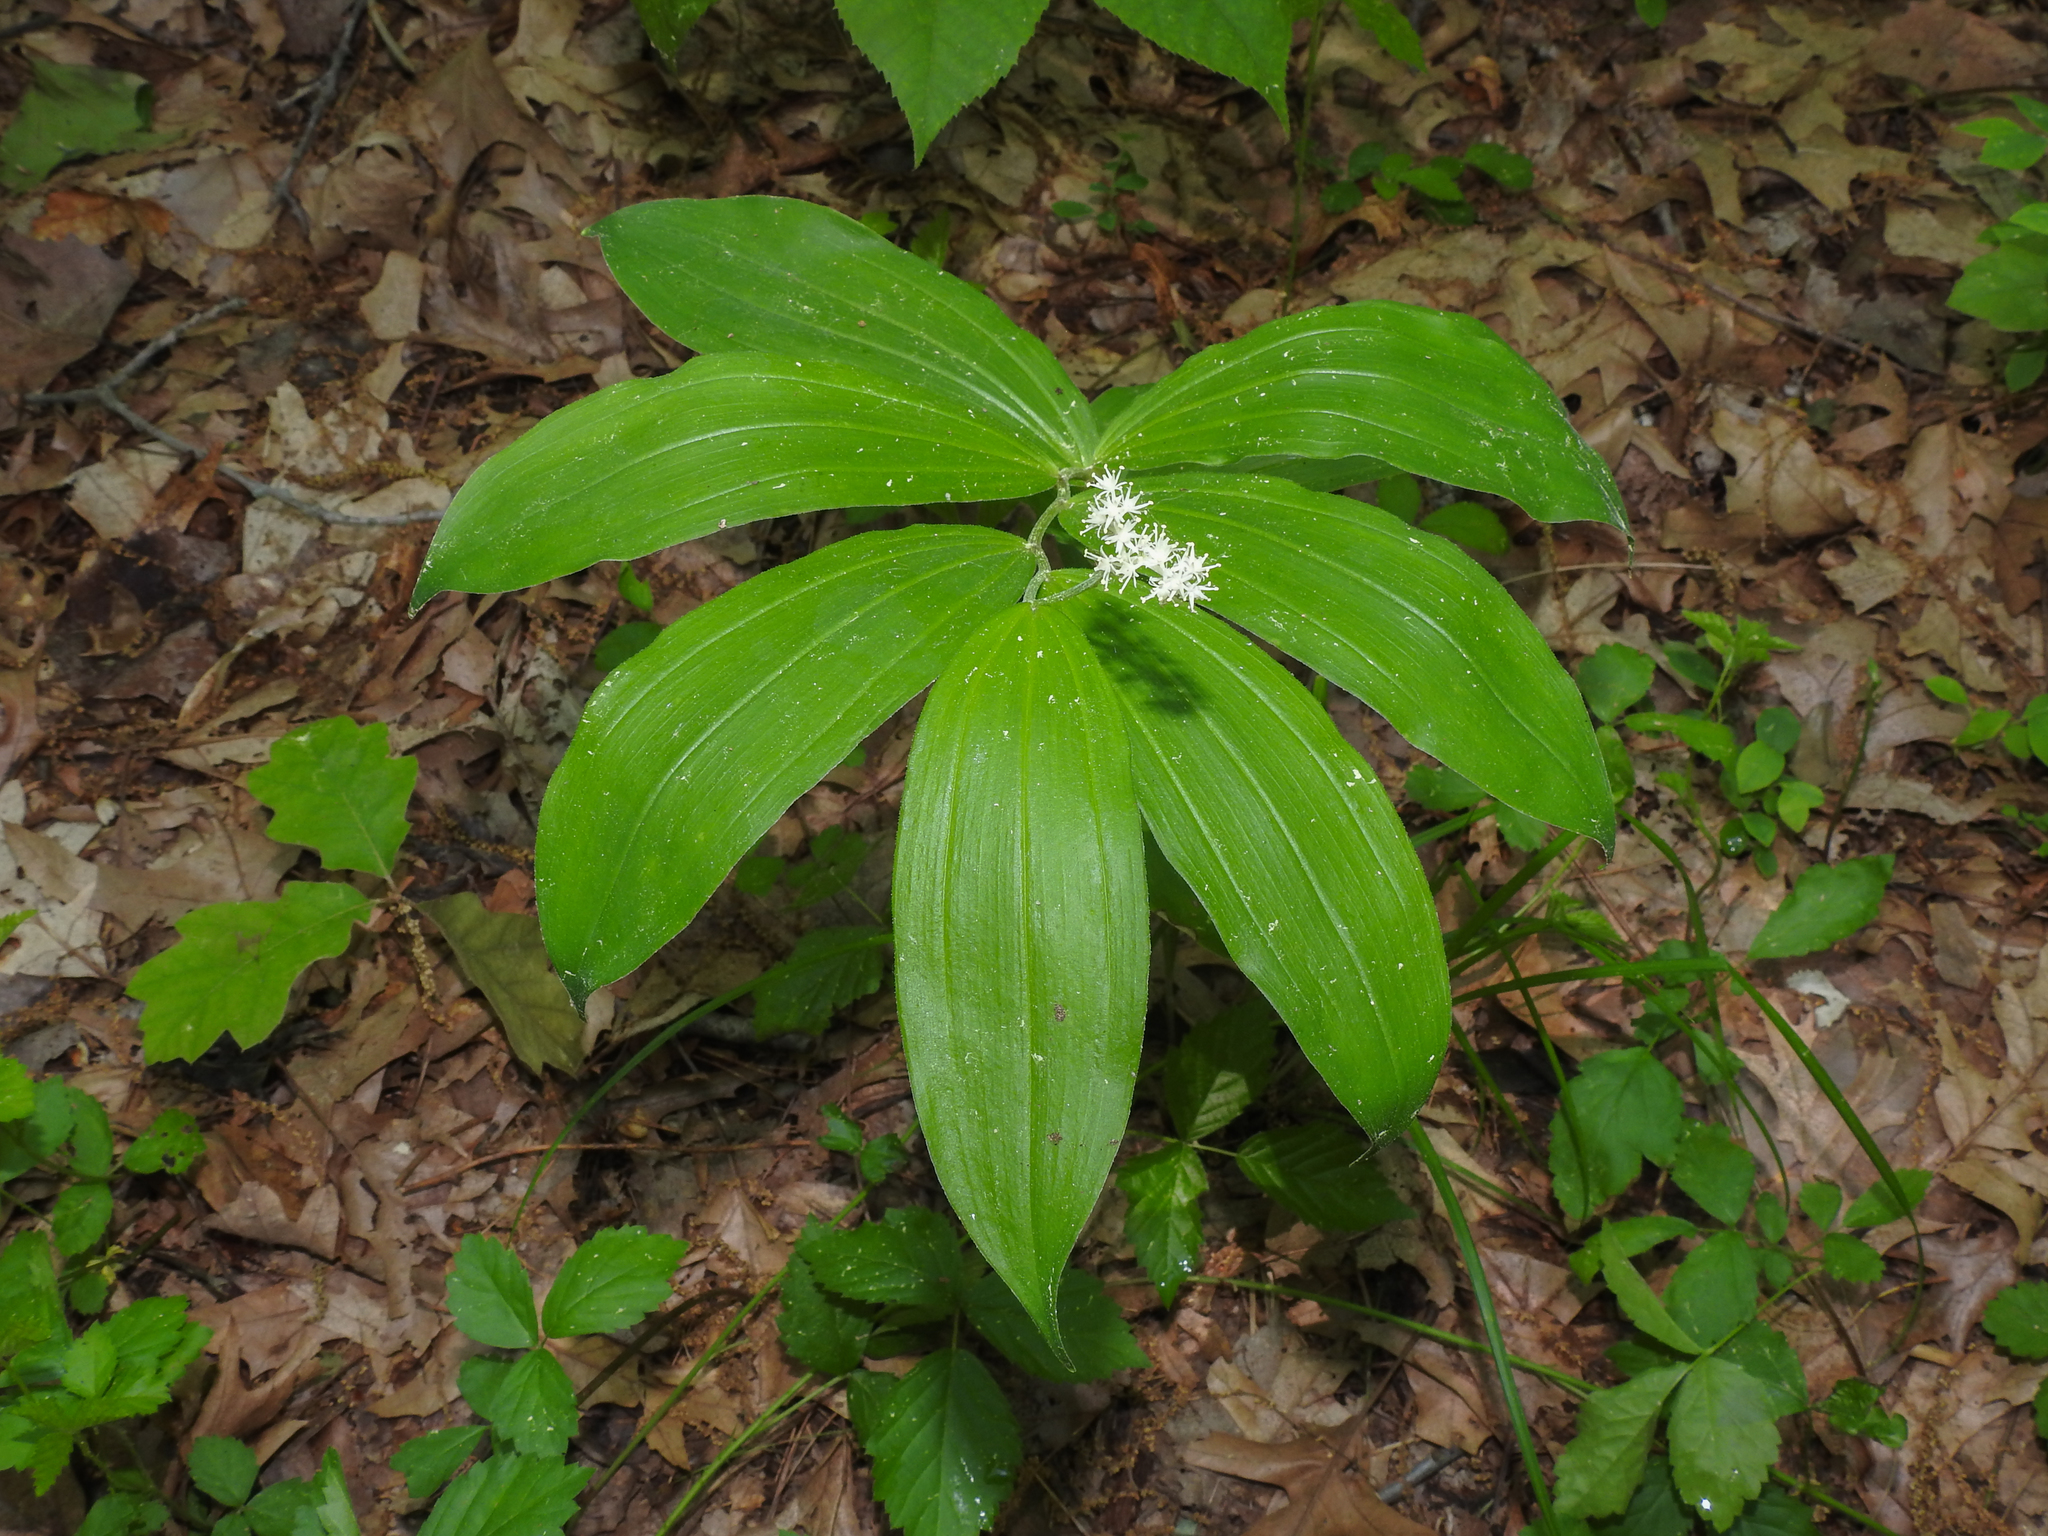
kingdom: Plantae
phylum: Tracheophyta
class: Liliopsida
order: Asparagales
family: Asparagaceae
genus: Maianthemum
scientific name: Maianthemum racemosum
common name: False spikenard
